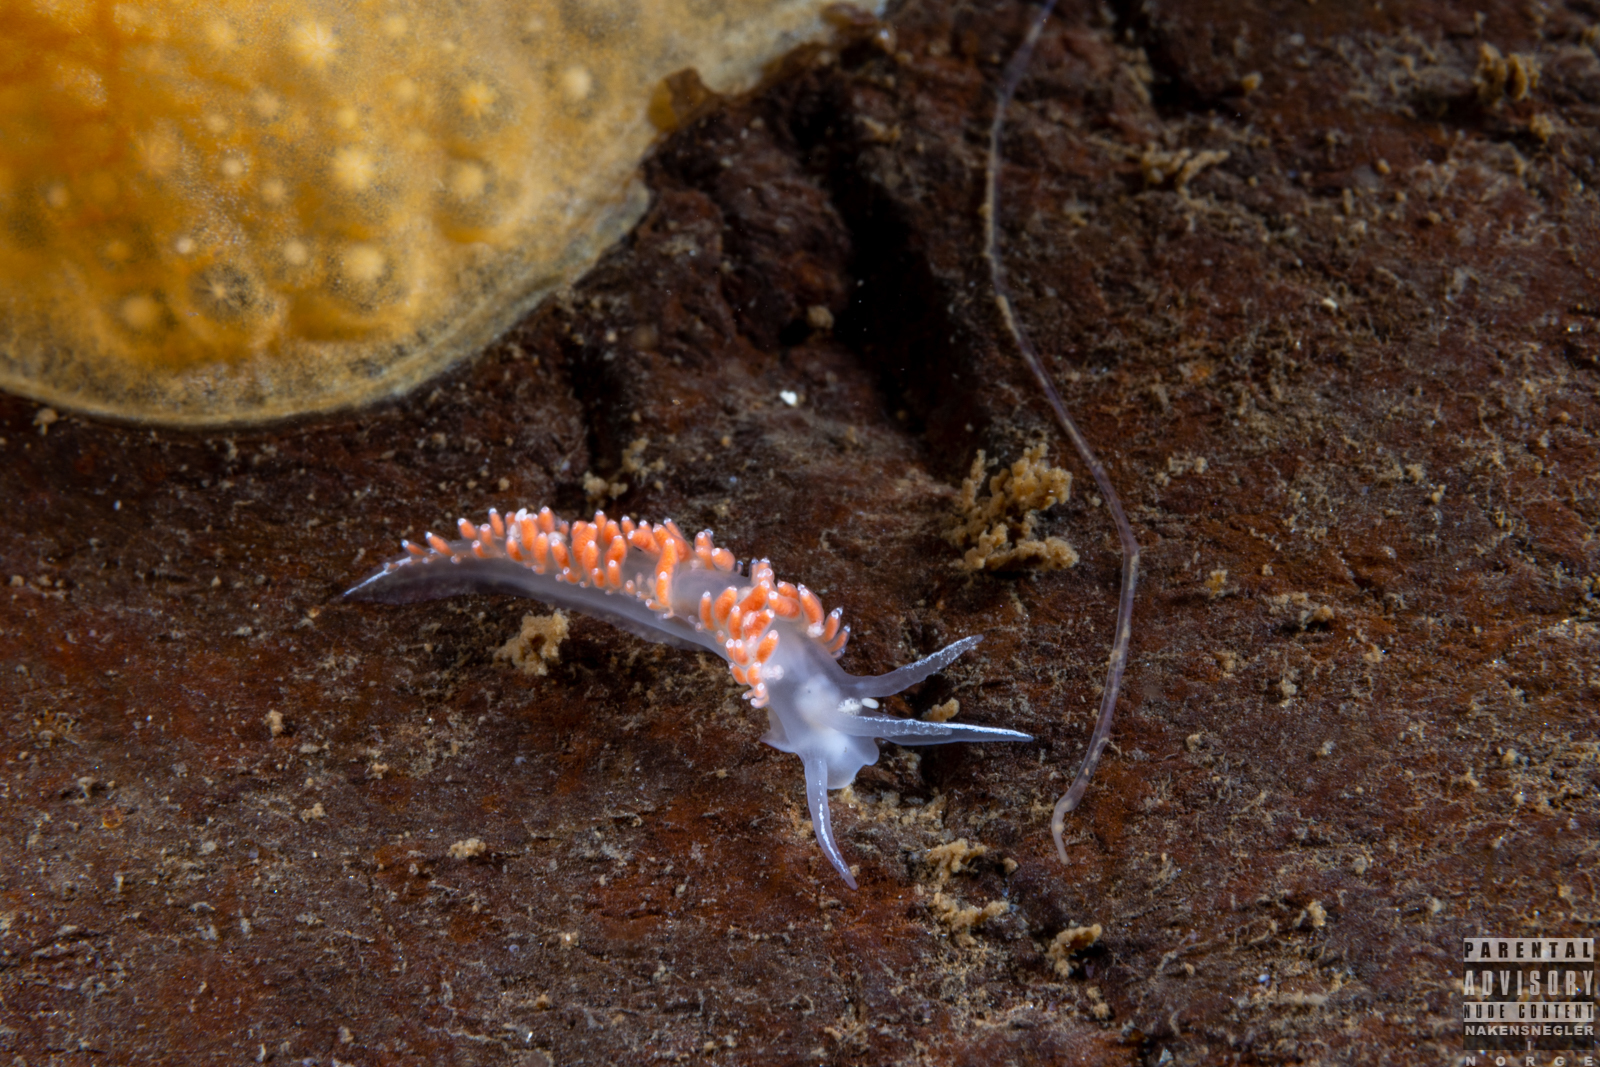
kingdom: Animalia
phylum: Mollusca
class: Gastropoda
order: Nudibranchia
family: Coryphellidae
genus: Coryphella
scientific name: Coryphella verrucosa
